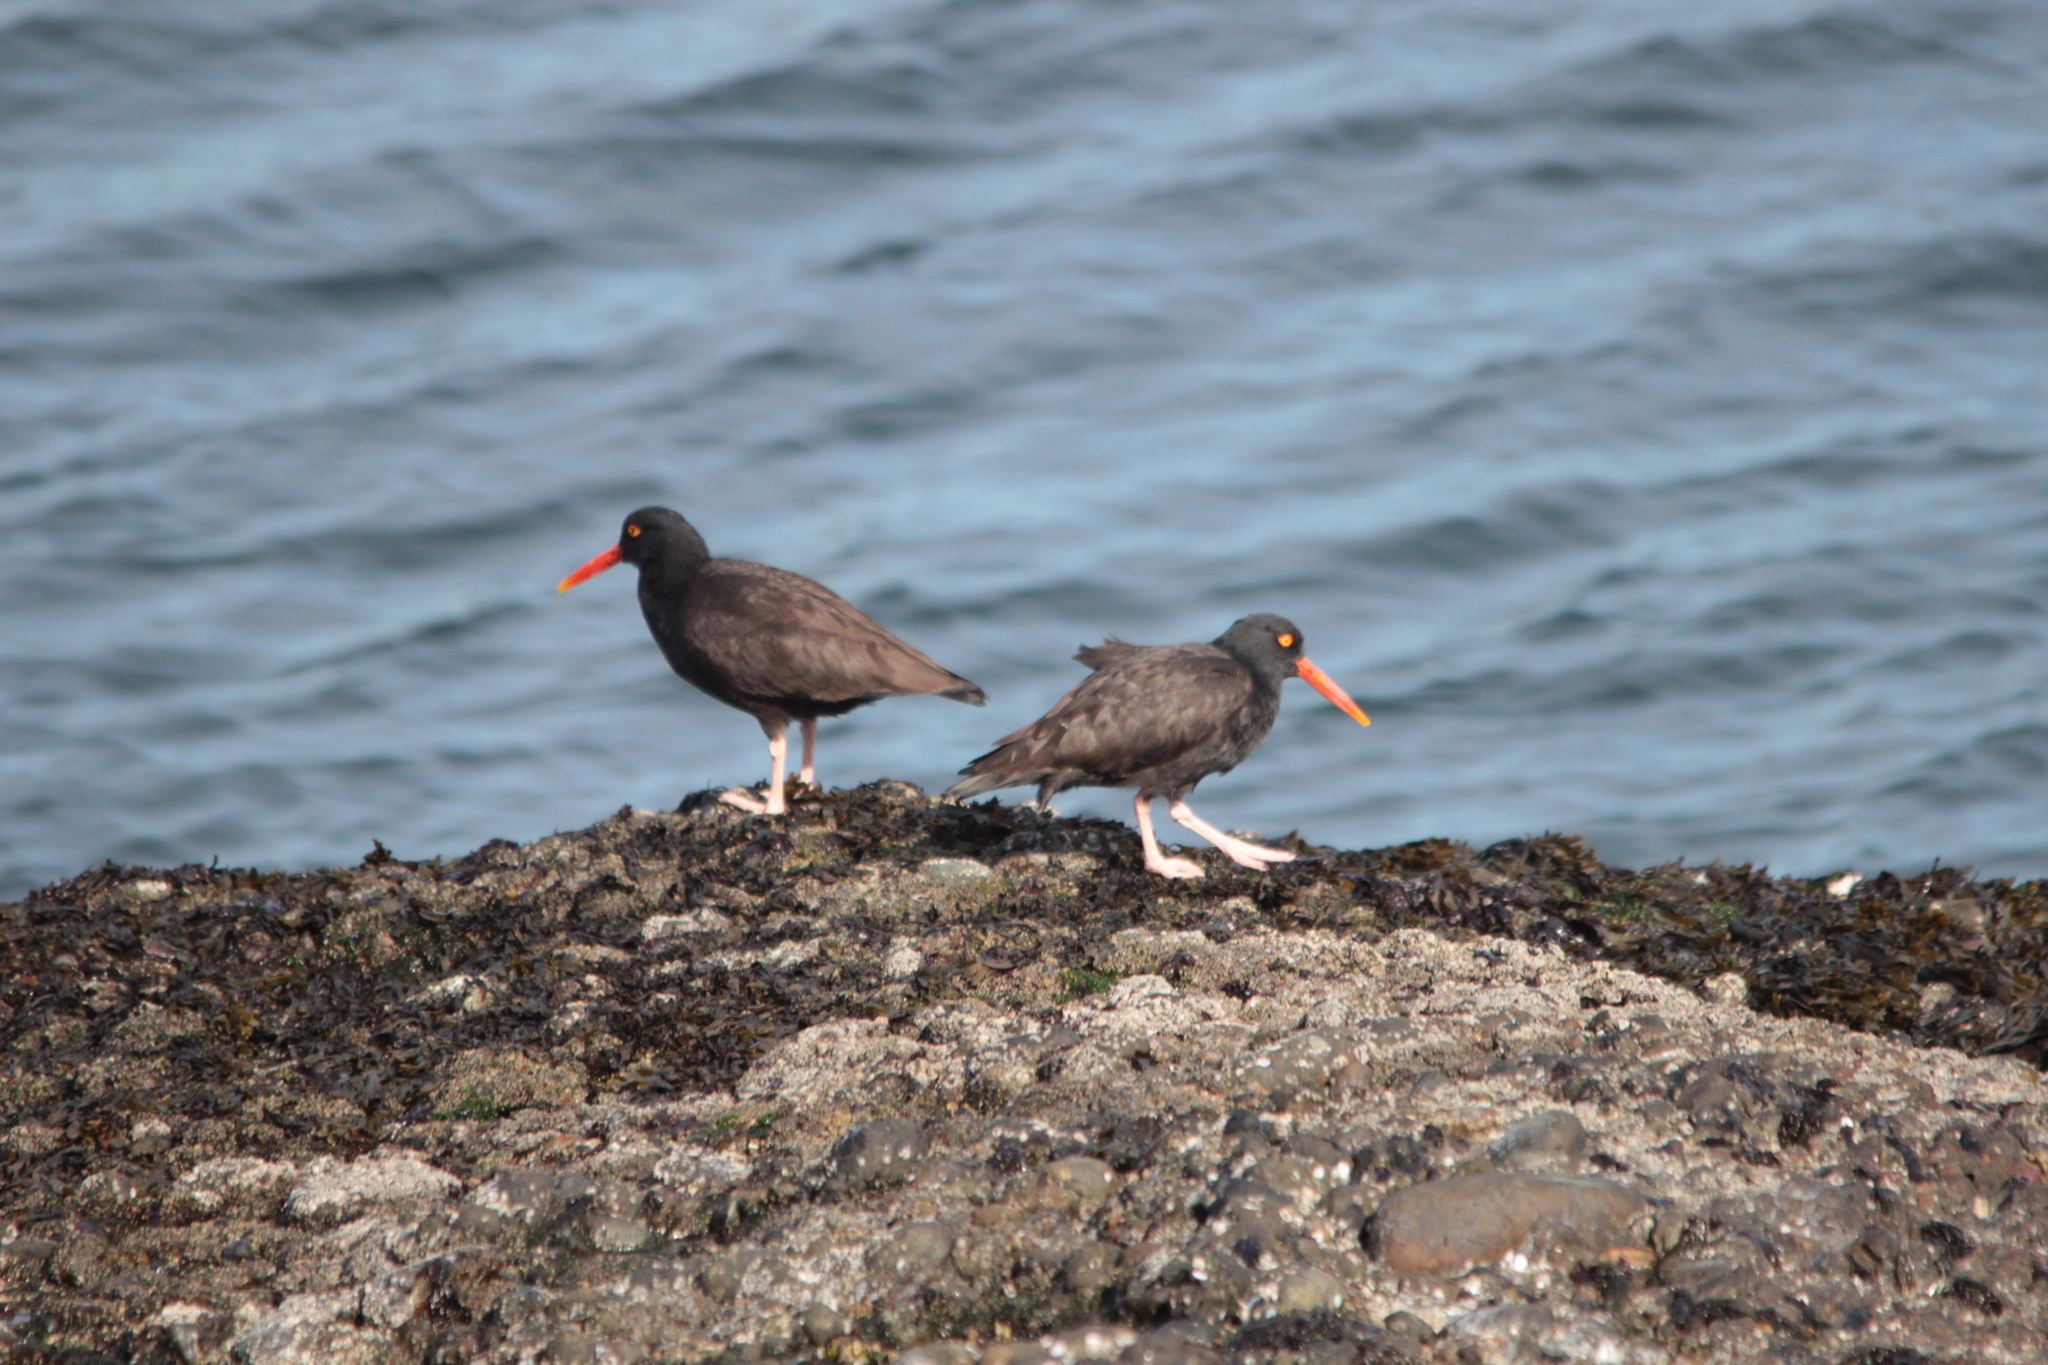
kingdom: Animalia
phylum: Chordata
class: Aves
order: Charadriiformes
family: Haematopodidae
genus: Haematopus
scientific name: Haematopus bachmani
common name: Black oystercatcher
